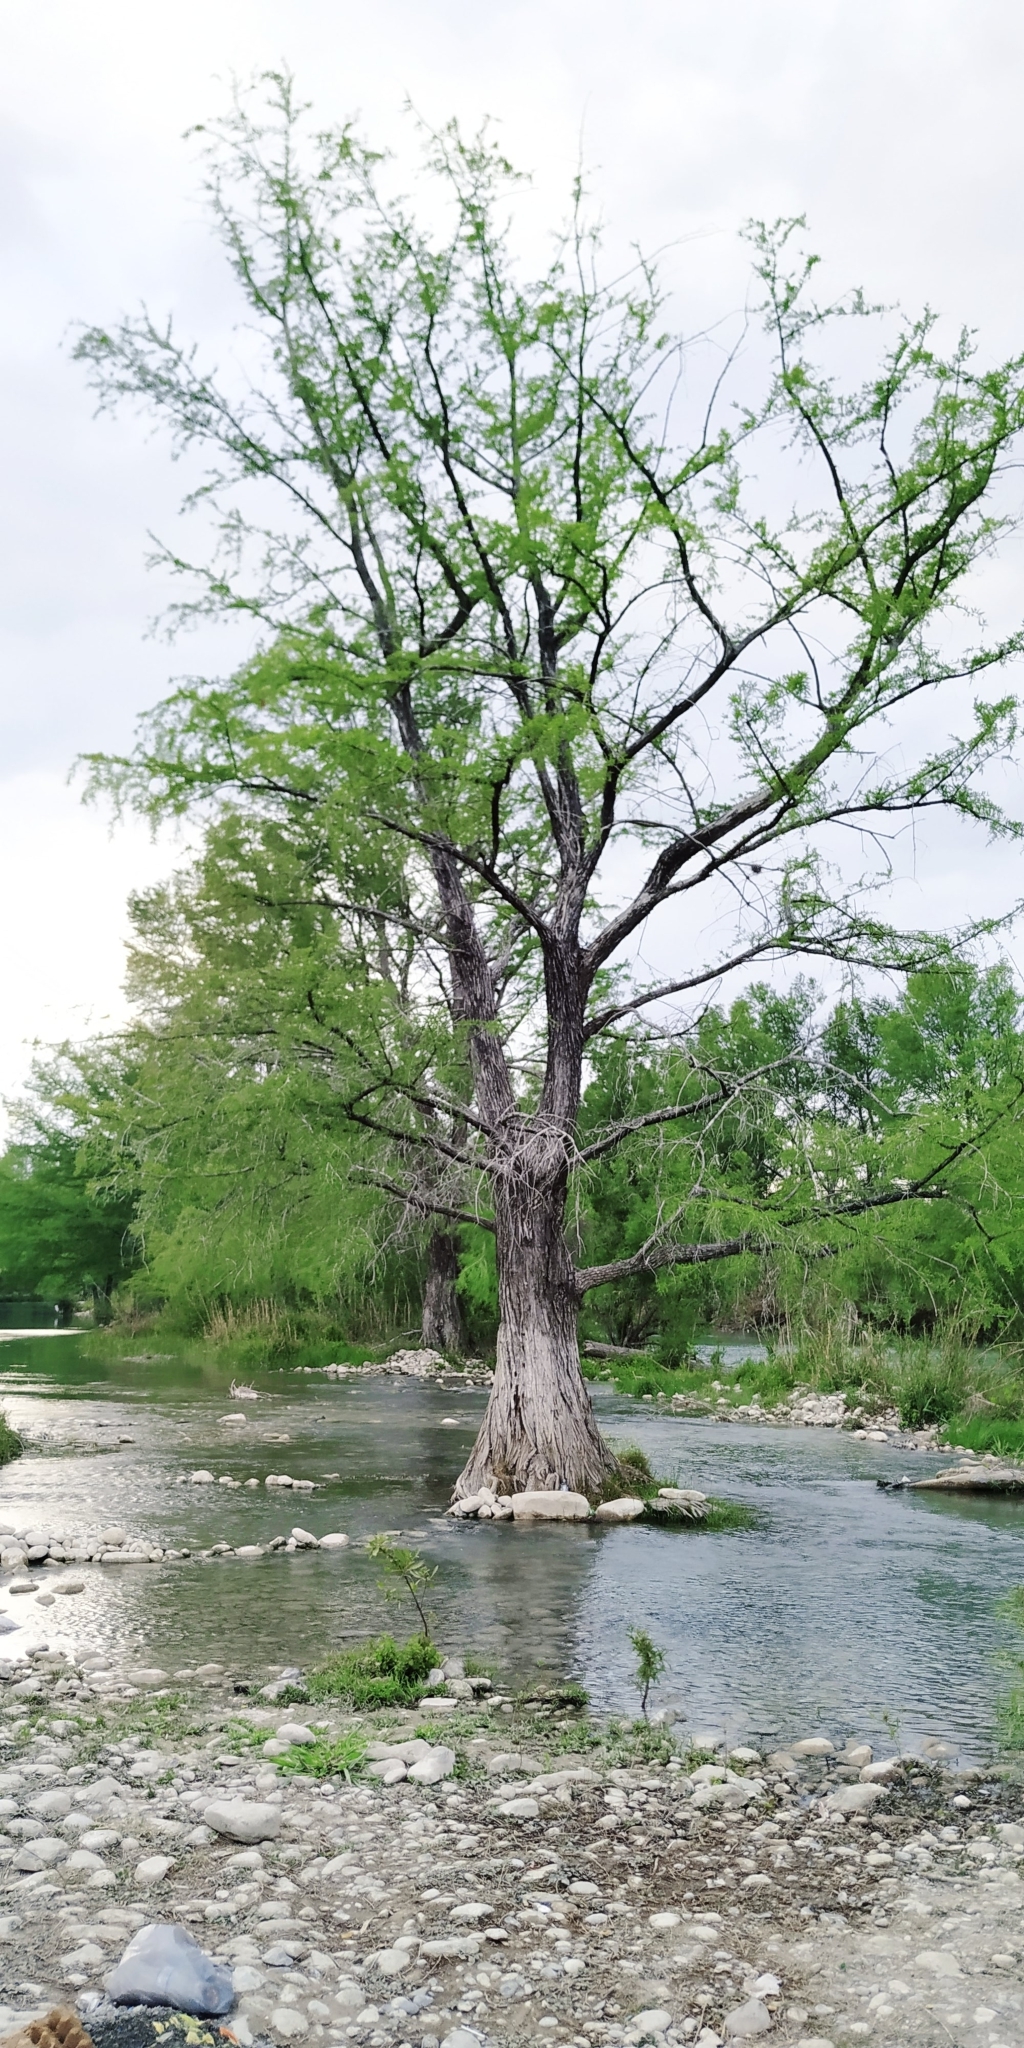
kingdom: Plantae
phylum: Tracheophyta
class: Pinopsida
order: Pinales
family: Cupressaceae
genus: Taxodium
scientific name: Taxodium mucronatum
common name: Montezume bald cypress
